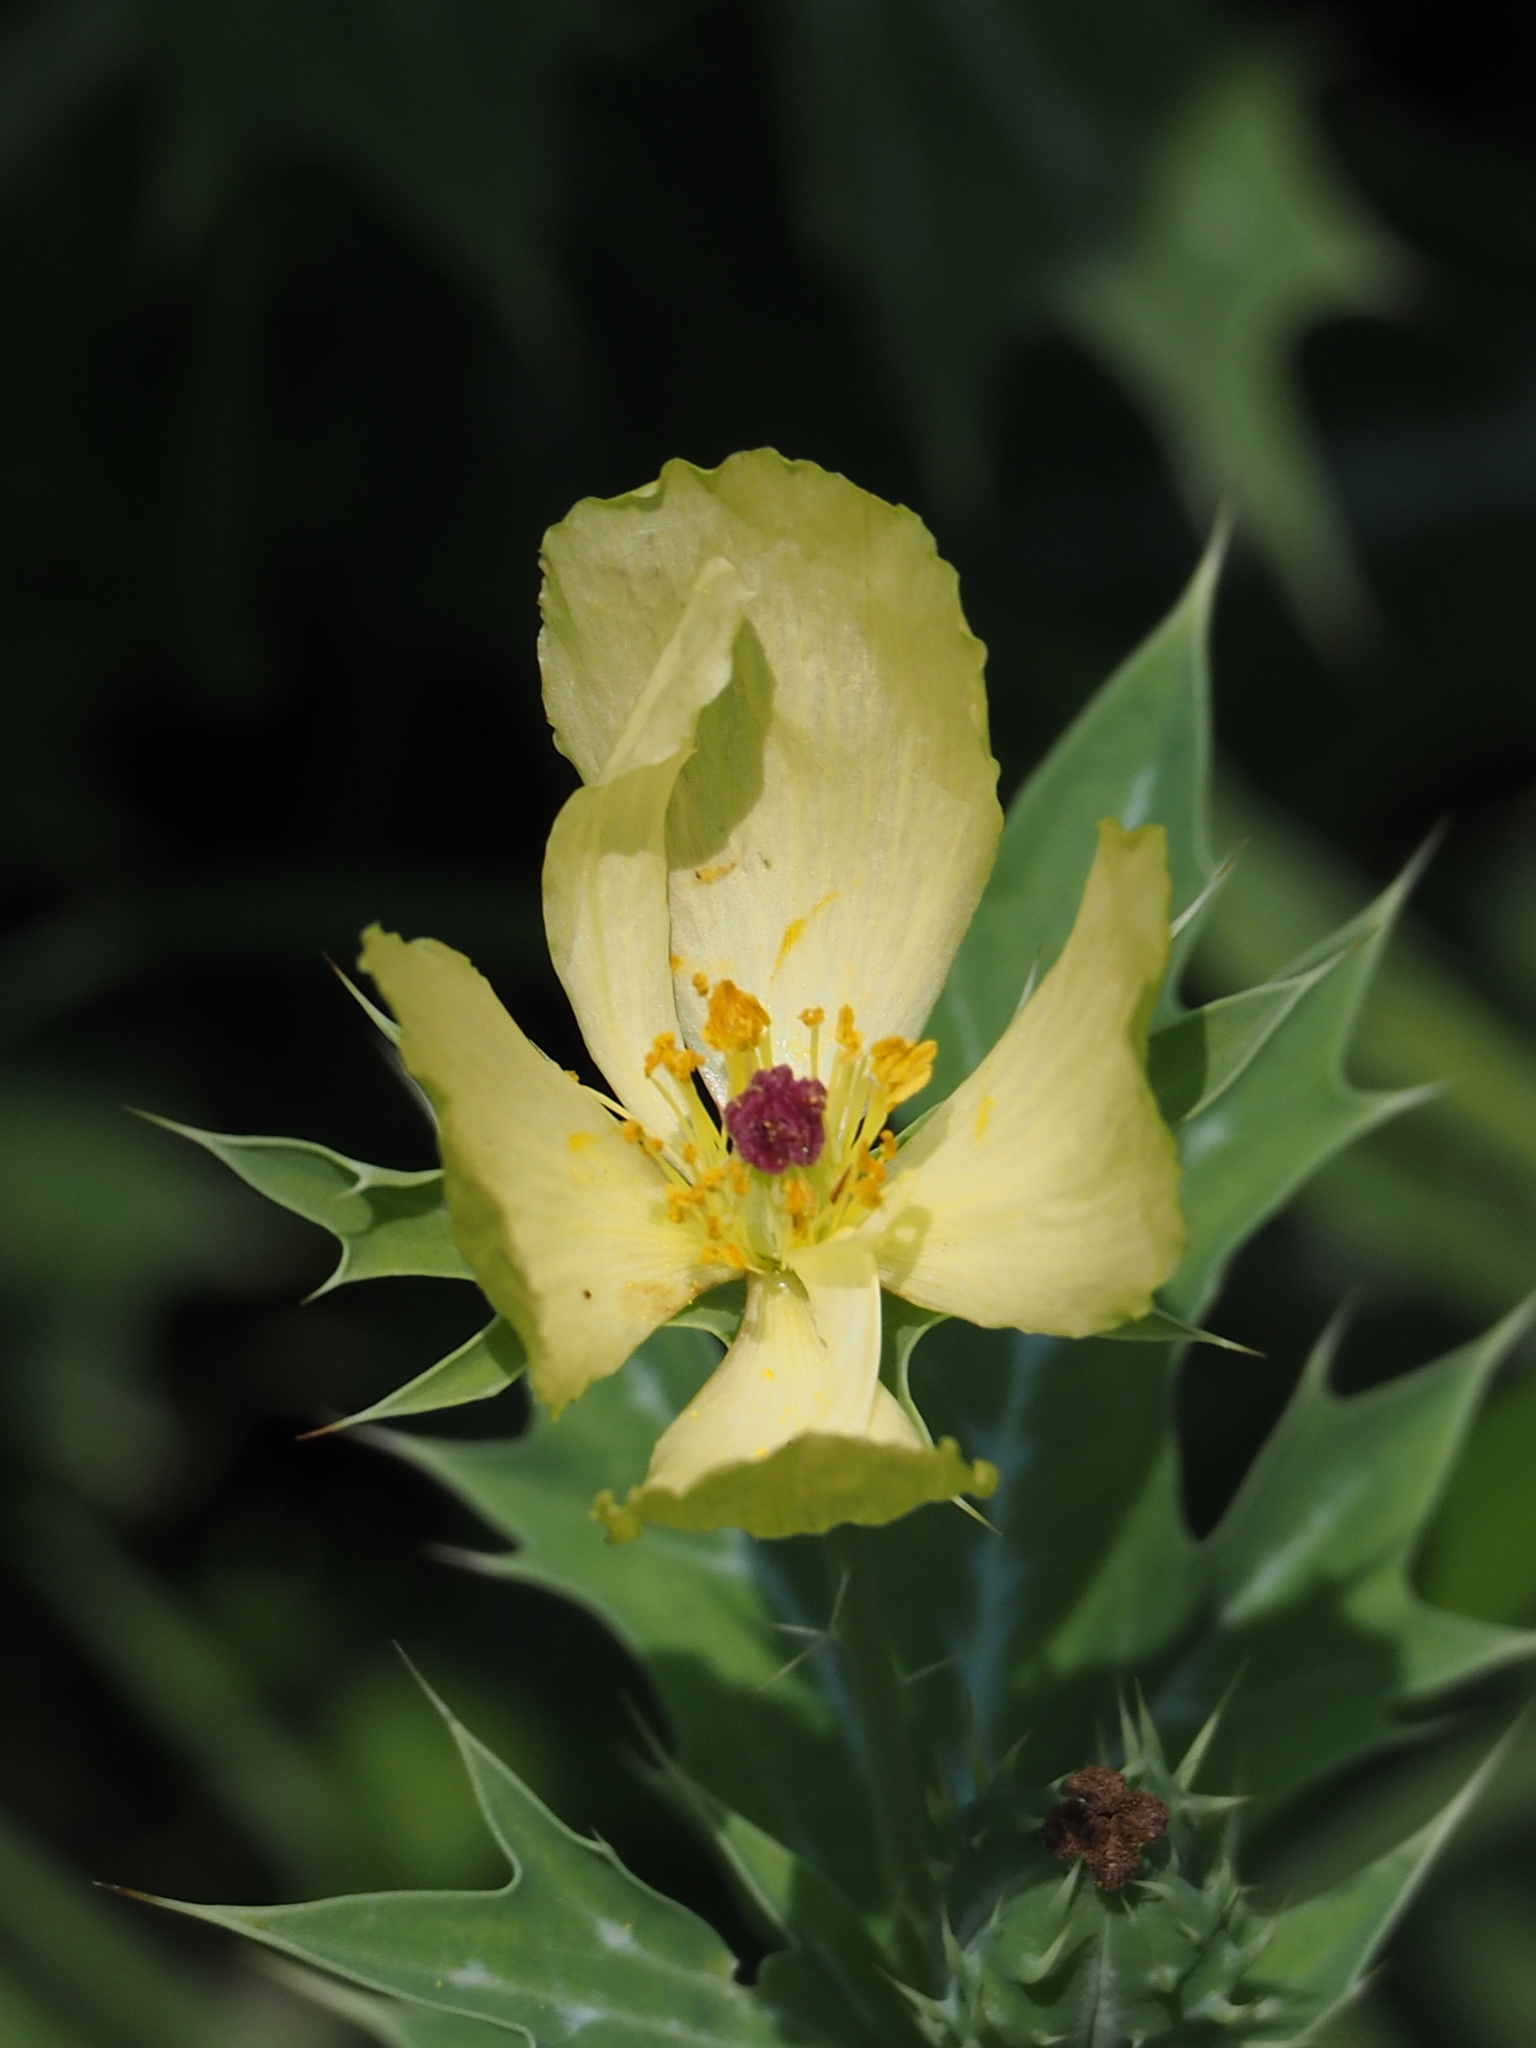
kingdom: Plantae
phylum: Tracheophyta
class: Magnoliopsida
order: Ranunculales
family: Papaveraceae
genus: Argemone
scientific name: Argemone mexicana
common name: Mexican poppy
